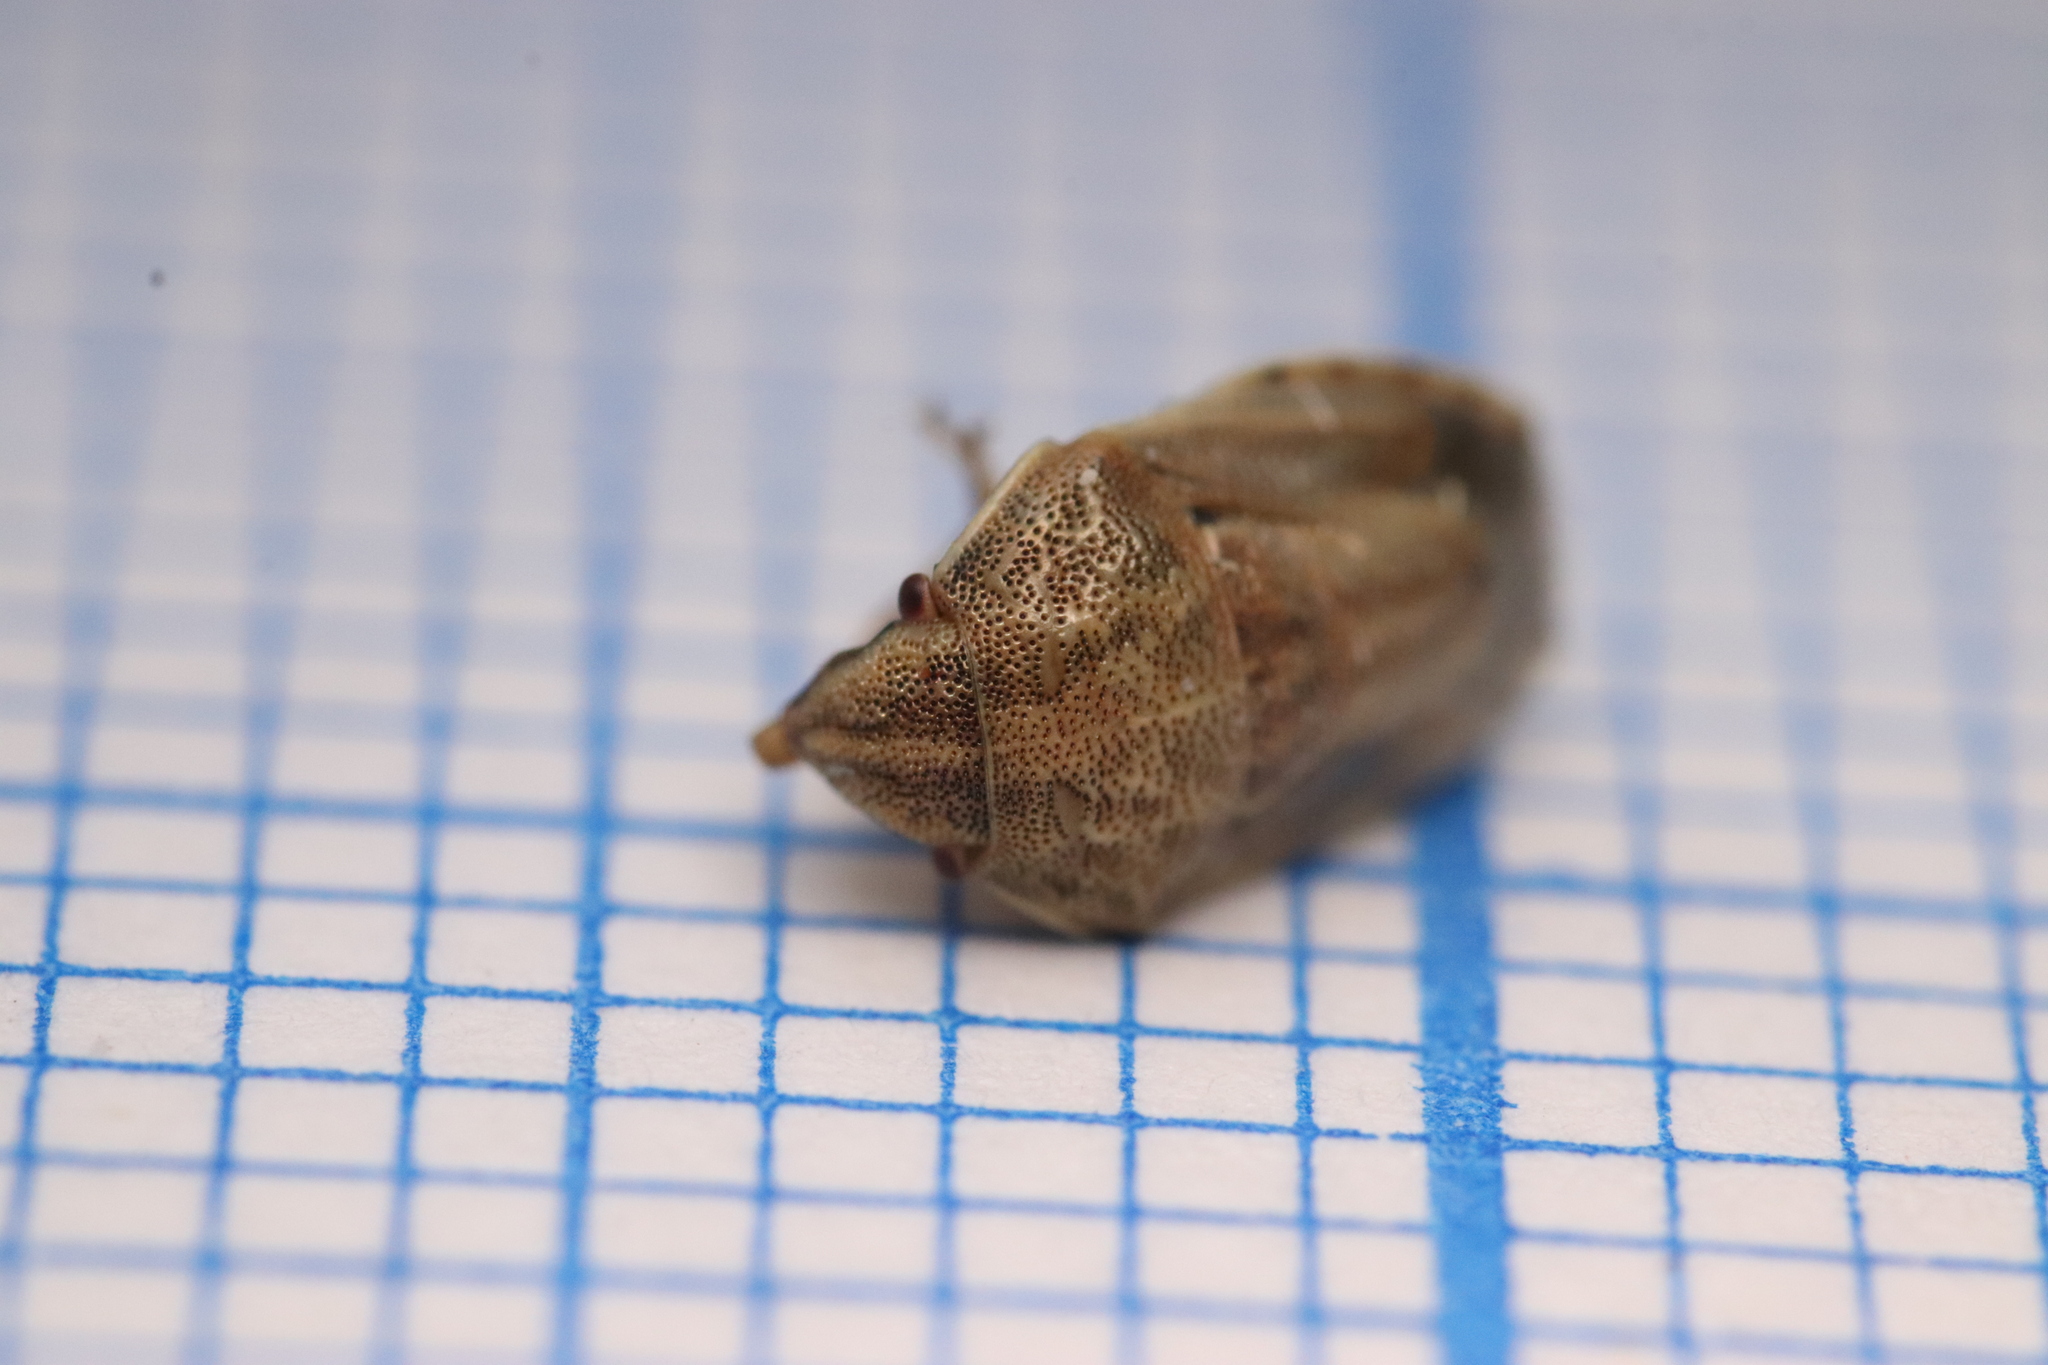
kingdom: Animalia
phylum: Arthropoda
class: Insecta
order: Hemiptera
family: Pentatomidae
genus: Neottiglossa
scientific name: Neottiglossa bifida
